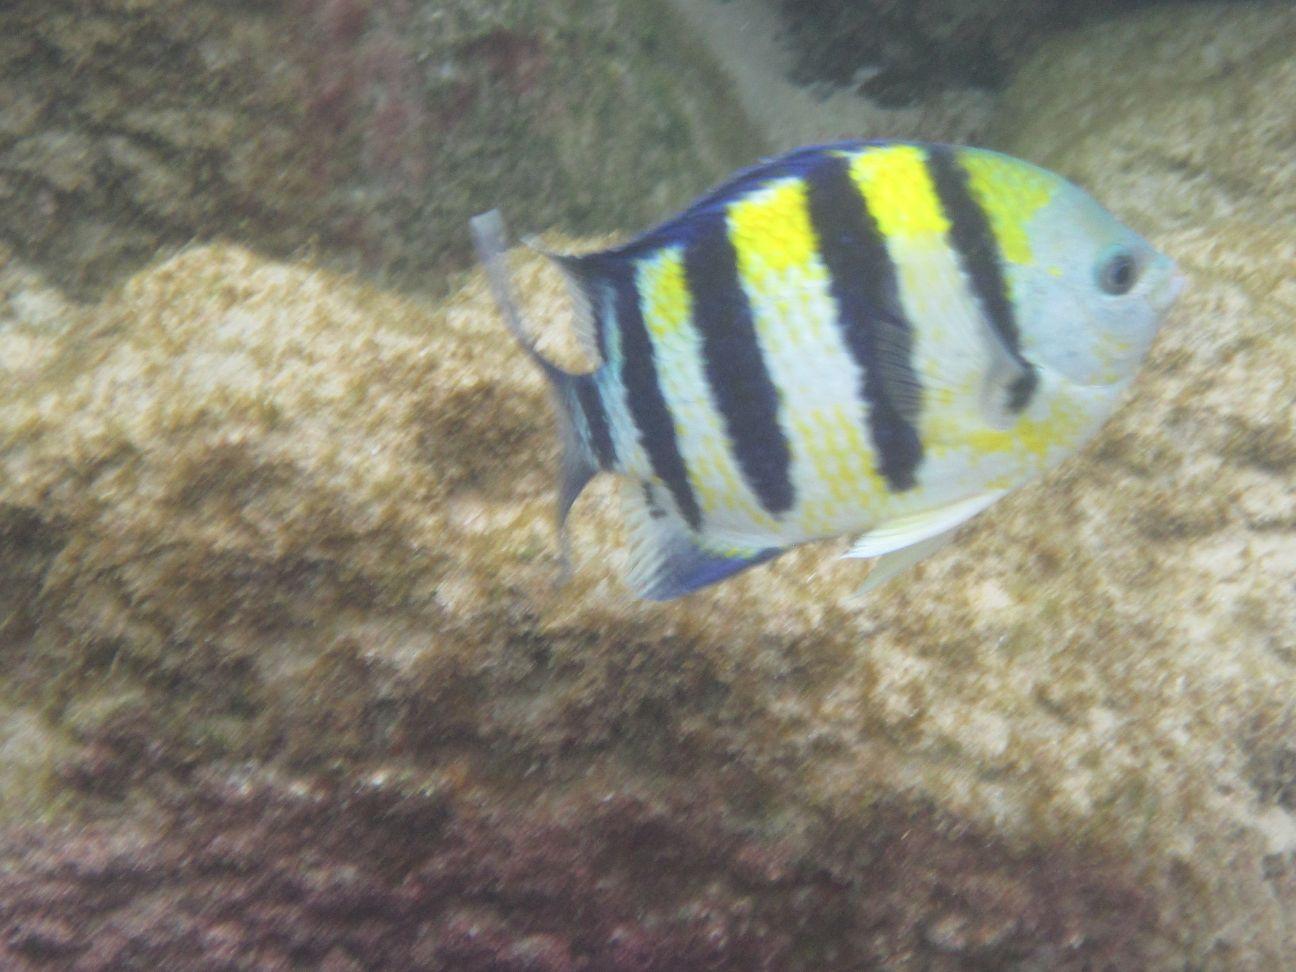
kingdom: Animalia
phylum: Chordata
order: Perciformes
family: Pomacentridae
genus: Abudefduf
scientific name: Abudefduf vaigiensis
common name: Indo-pacific sergeant
